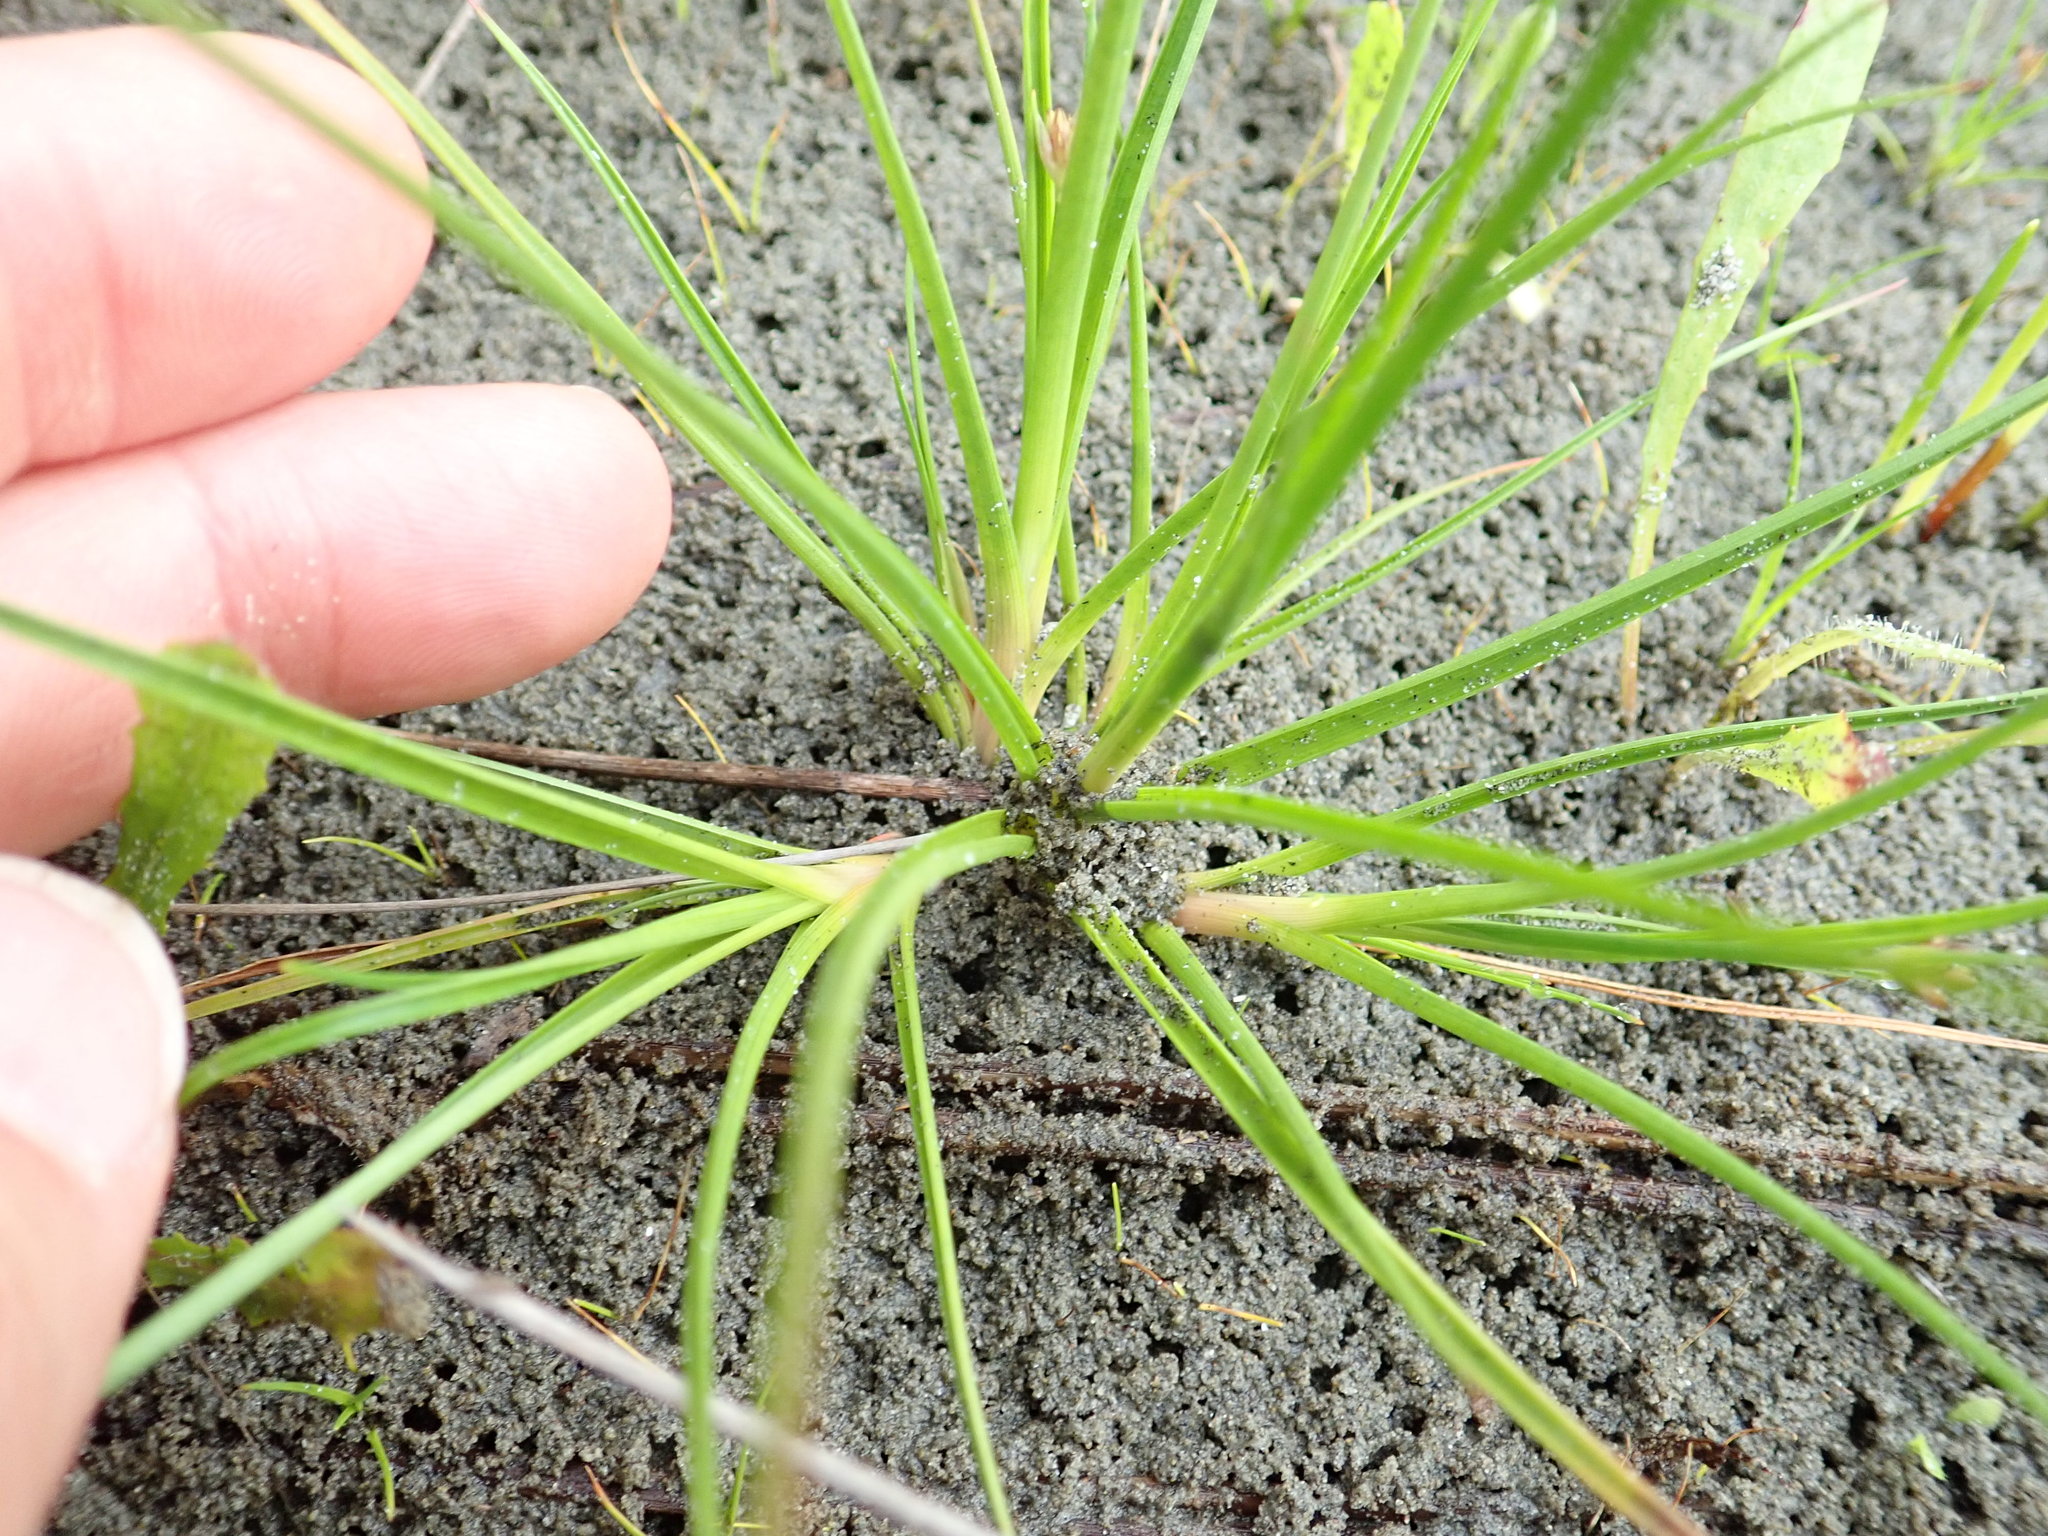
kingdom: Plantae
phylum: Tracheophyta
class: Liliopsida
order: Poales
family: Juncaceae
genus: Juncus
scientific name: Juncus caespiticius
